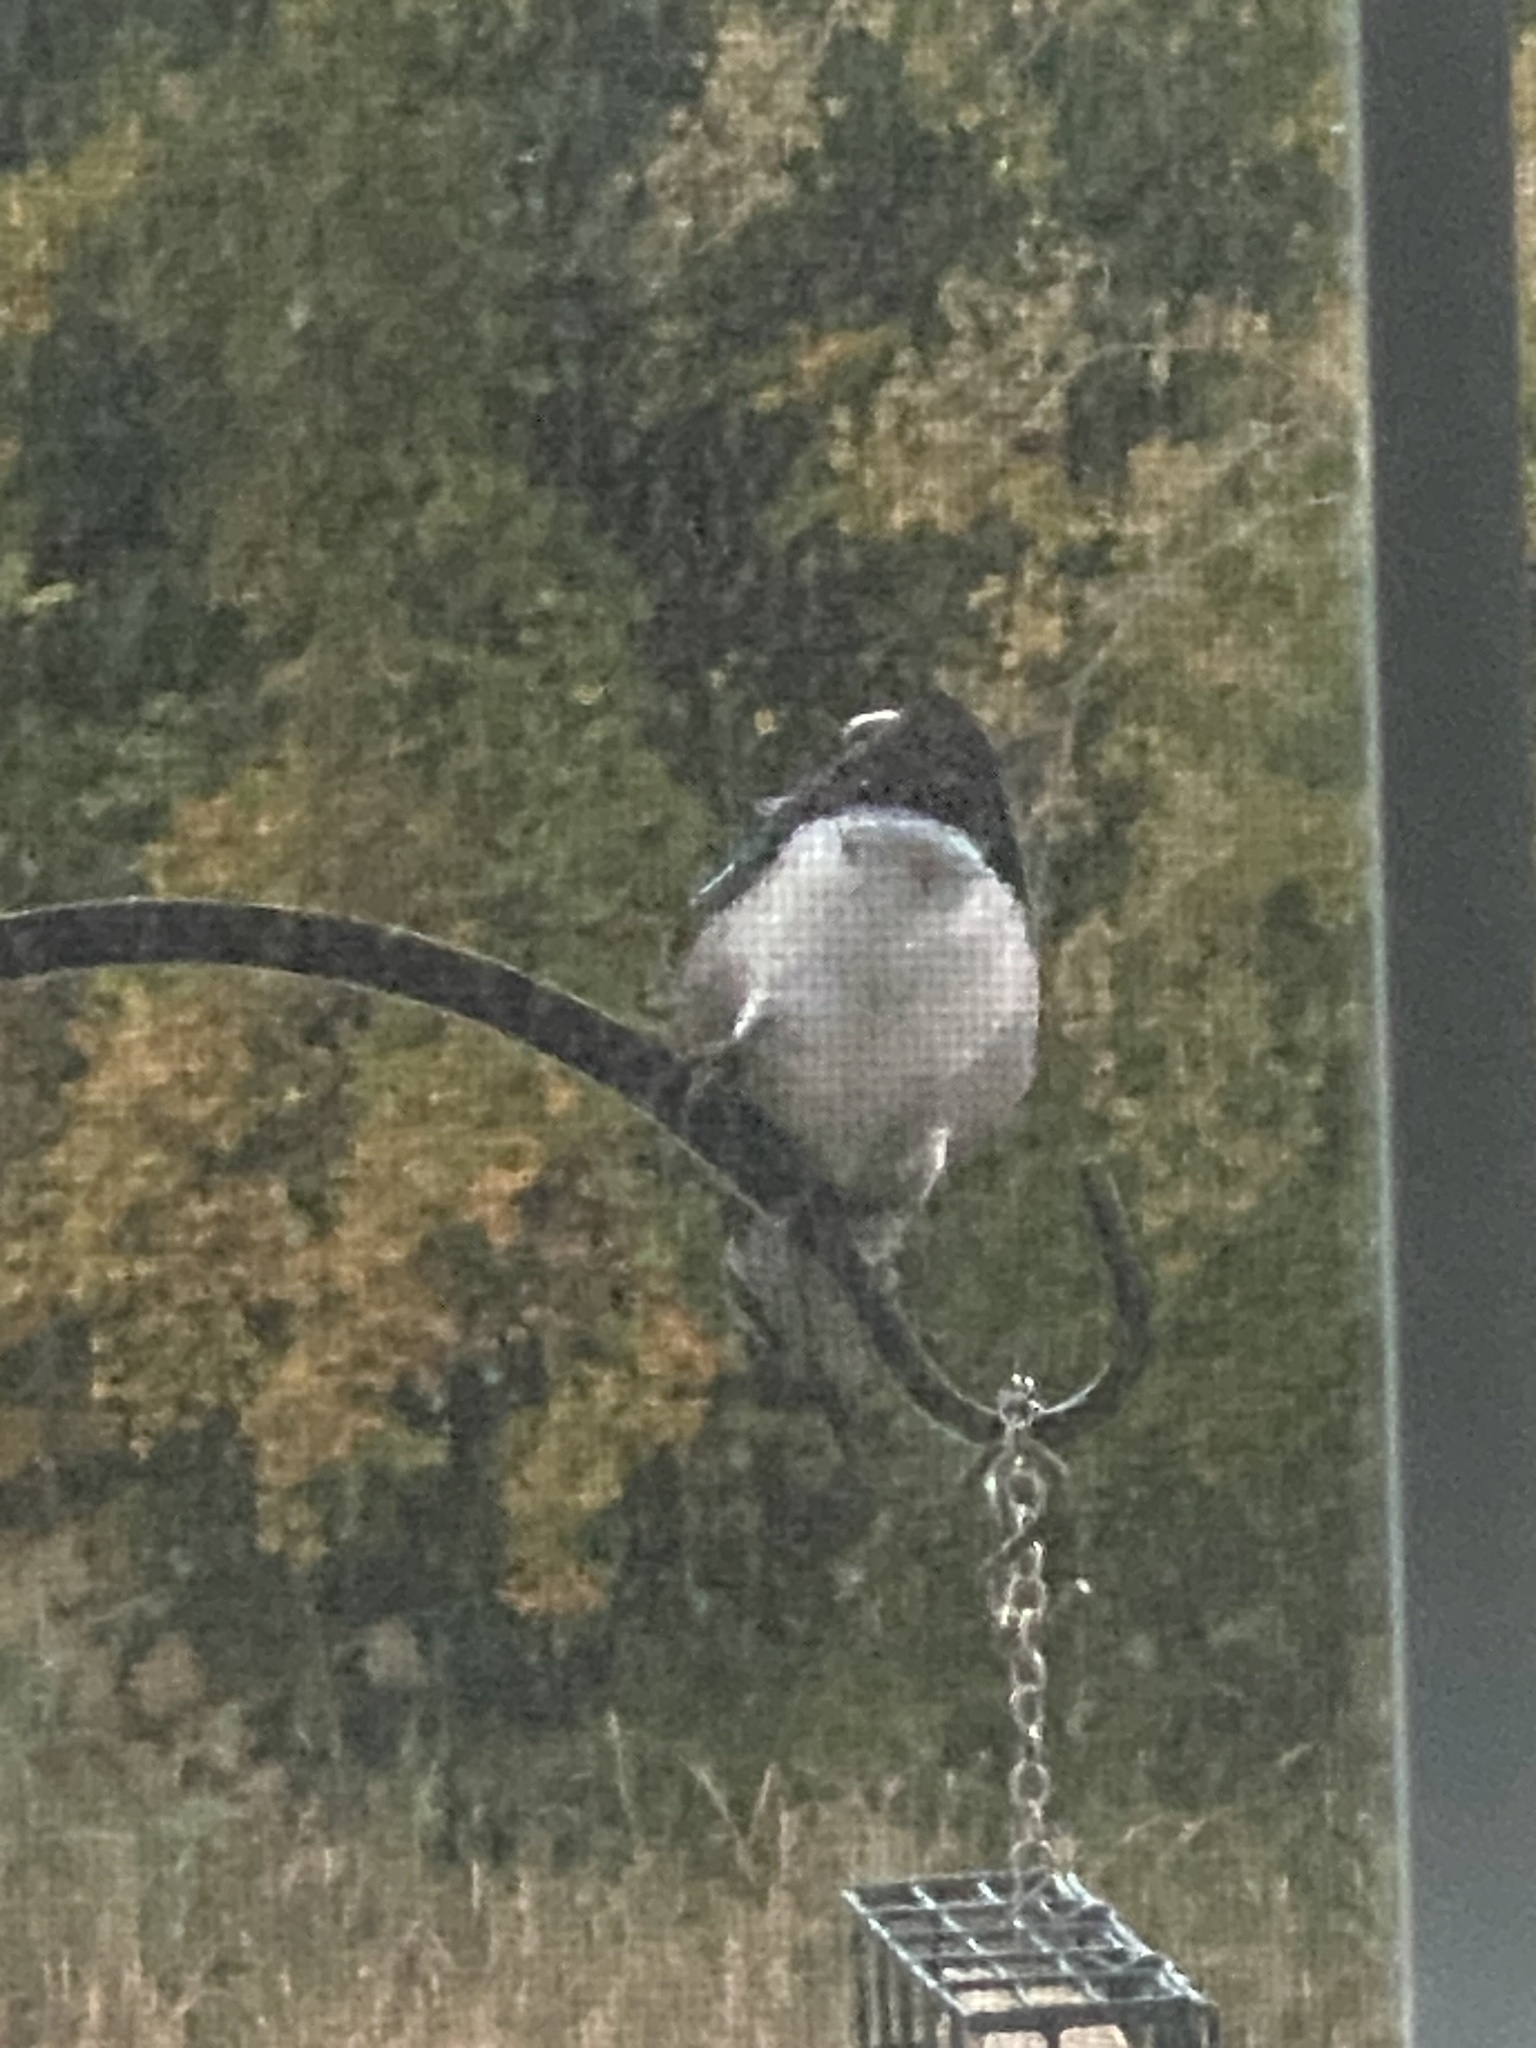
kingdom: Animalia
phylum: Chordata
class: Aves
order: Passeriformes
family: Corvidae
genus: Cyanocitta
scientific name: Cyanocitta cristata
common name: Blue jay
